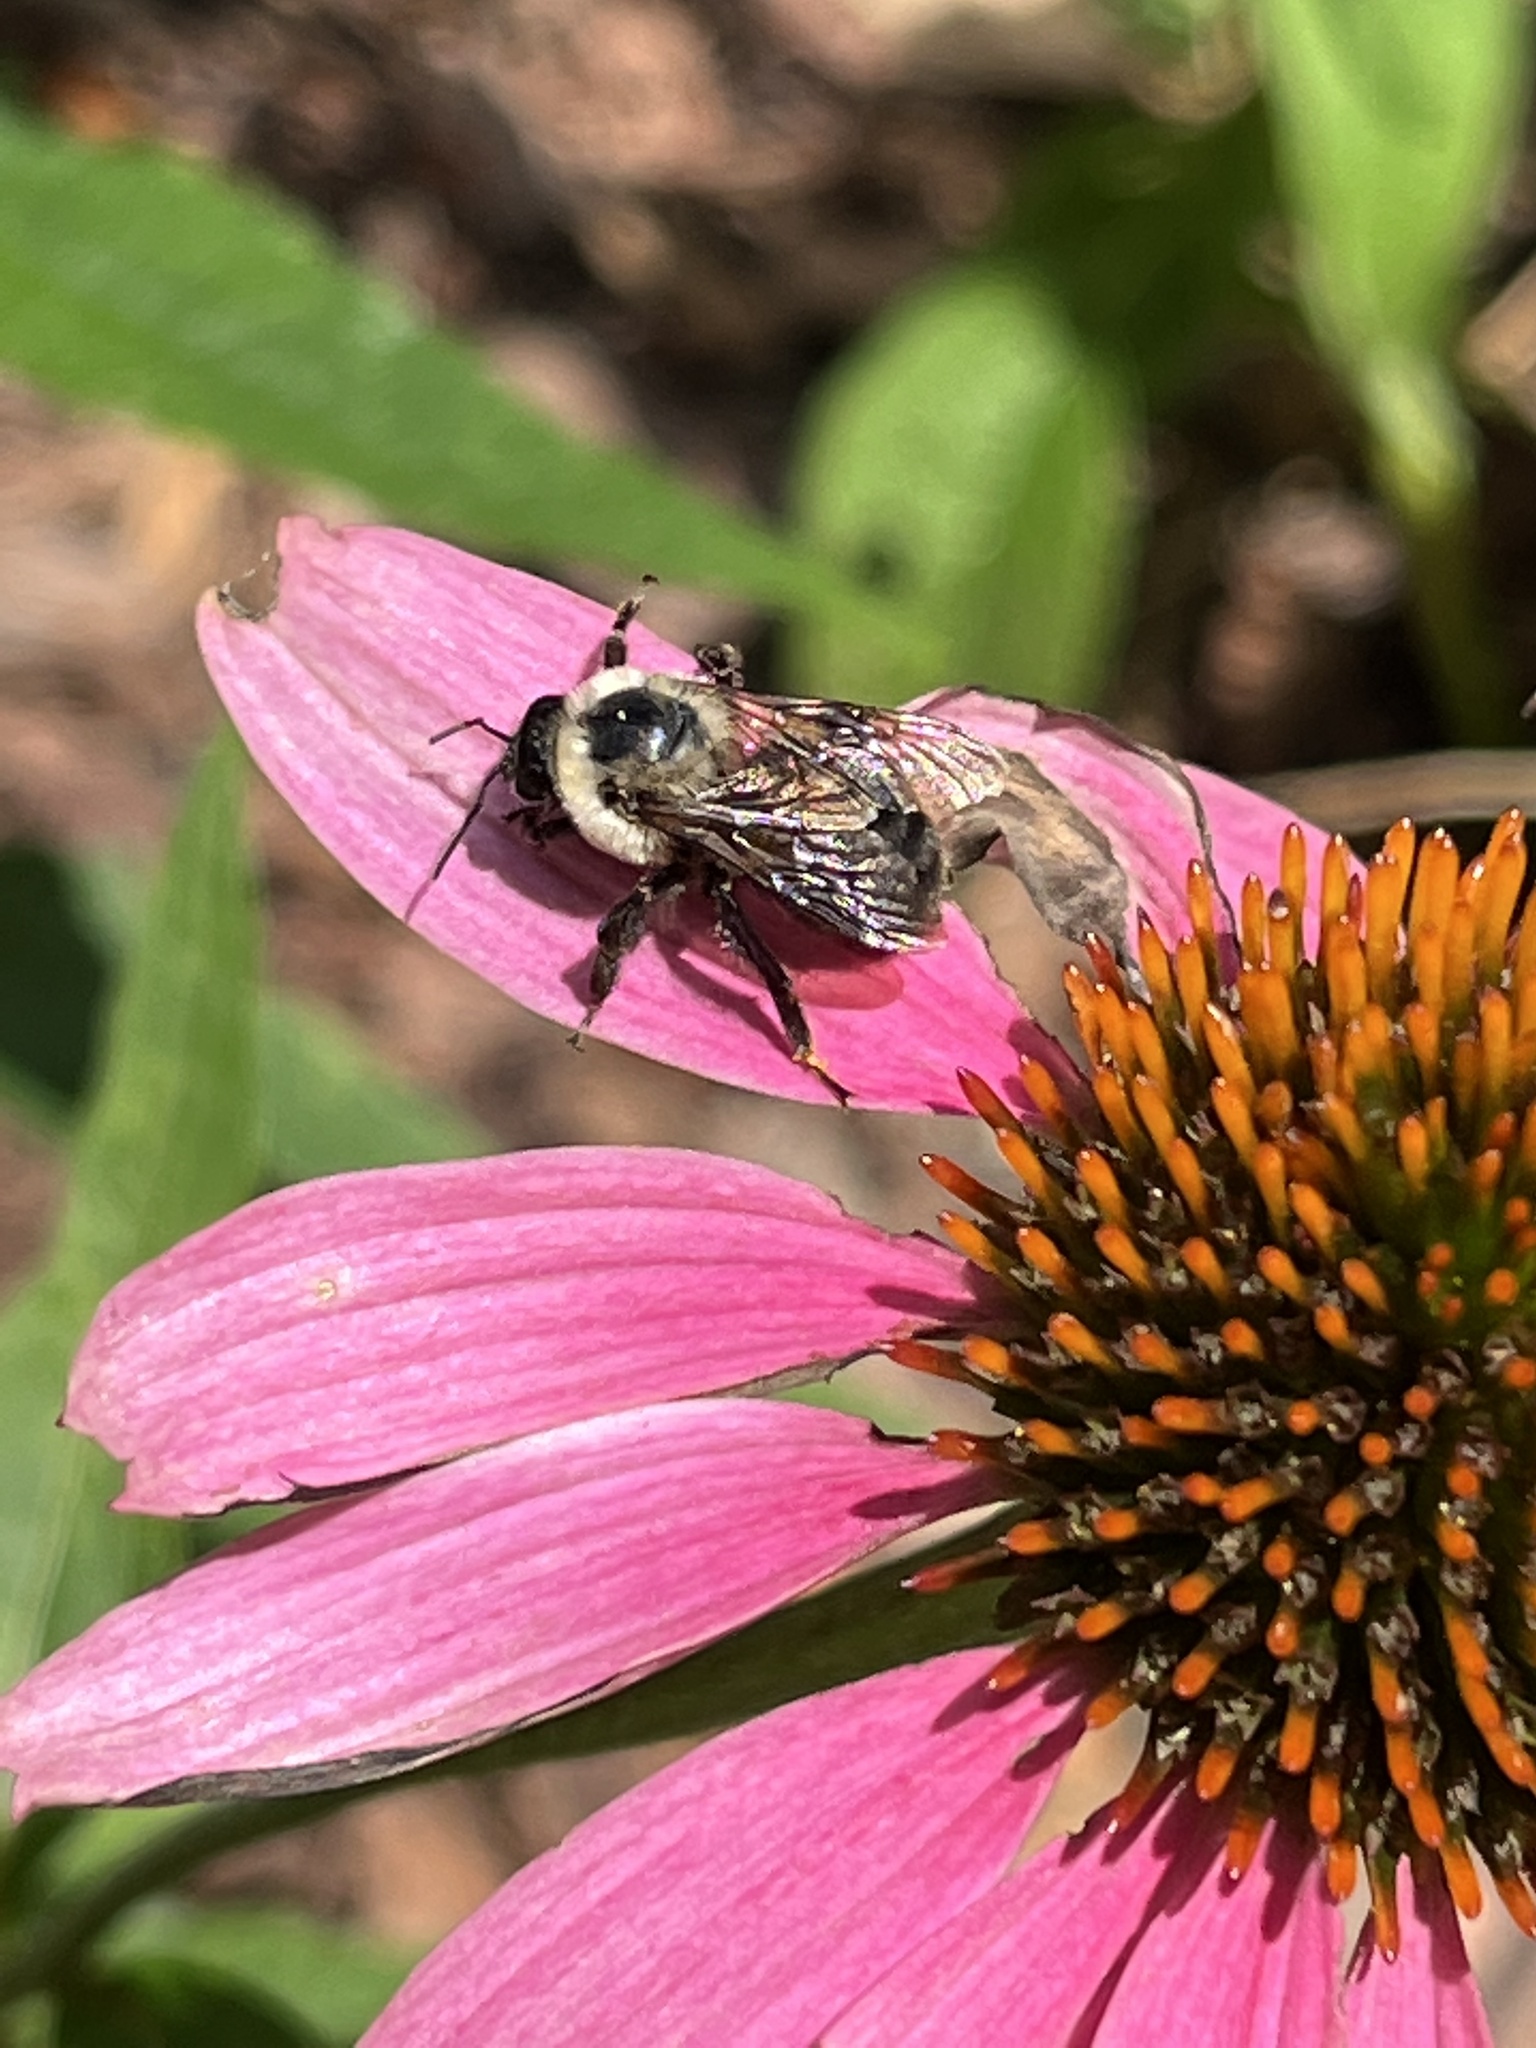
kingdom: Animalia
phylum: Arthropoda
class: Insecta
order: Hymenoptera
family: Apidae
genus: Bombus
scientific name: Bombus griseocollis
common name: Brown-belted bumble bee
